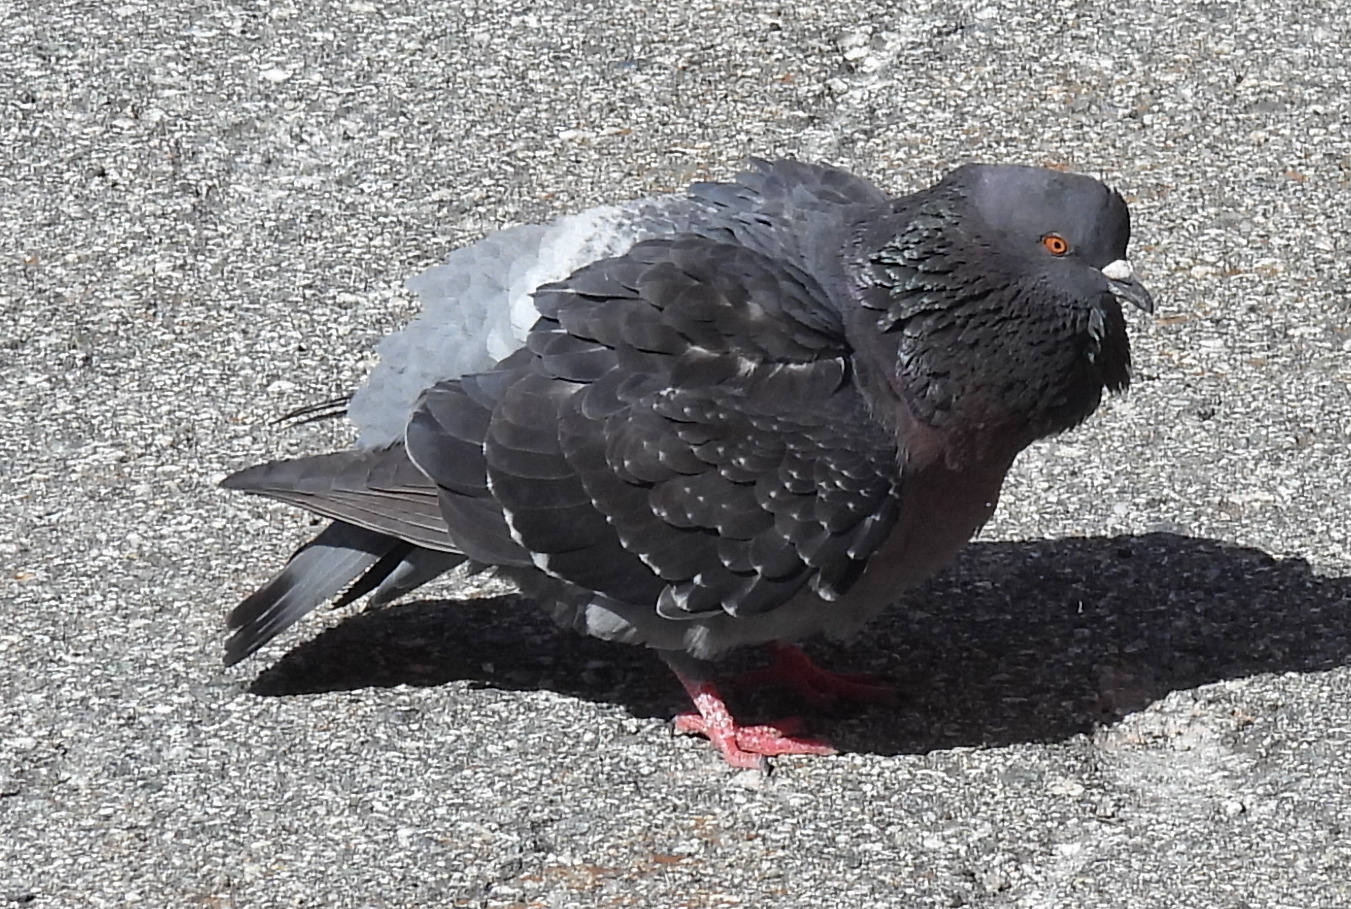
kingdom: Animalia
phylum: Chordata
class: Aves
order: Columbiformes
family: Columbidae
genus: Columba
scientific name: Columba livia
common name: Rock pigeon
